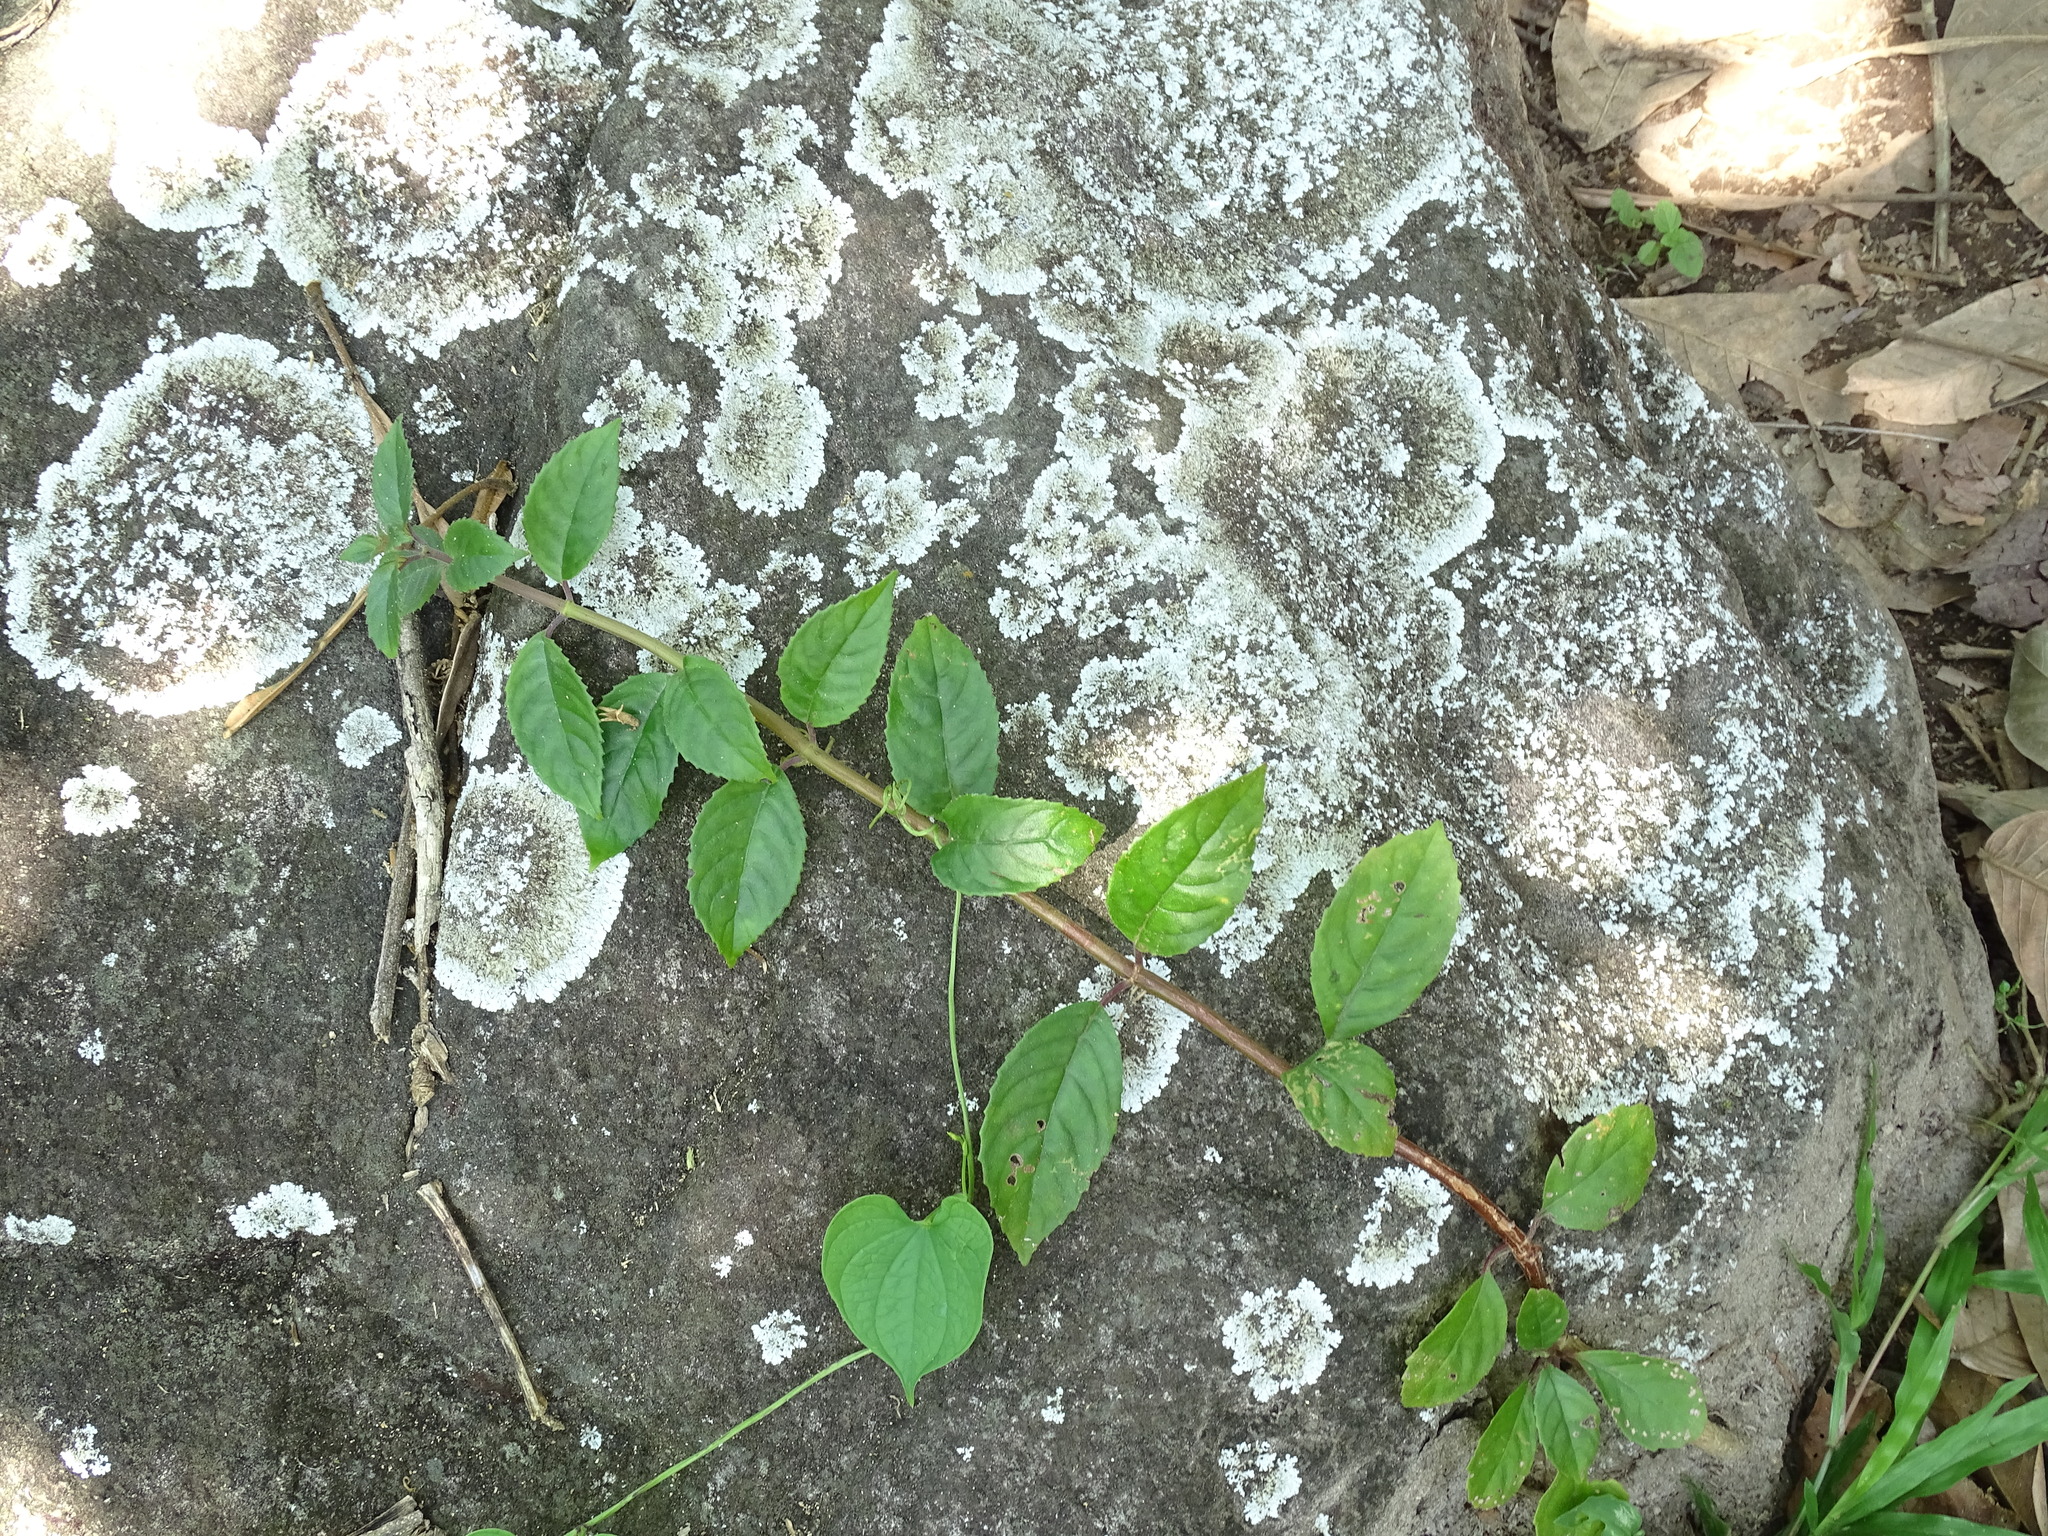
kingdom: Plantae
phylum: Tracheophyta
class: Magnoliopsida
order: Lamiales
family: Gesneriaceae
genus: Drymonia
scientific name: Drymonia serrulata
